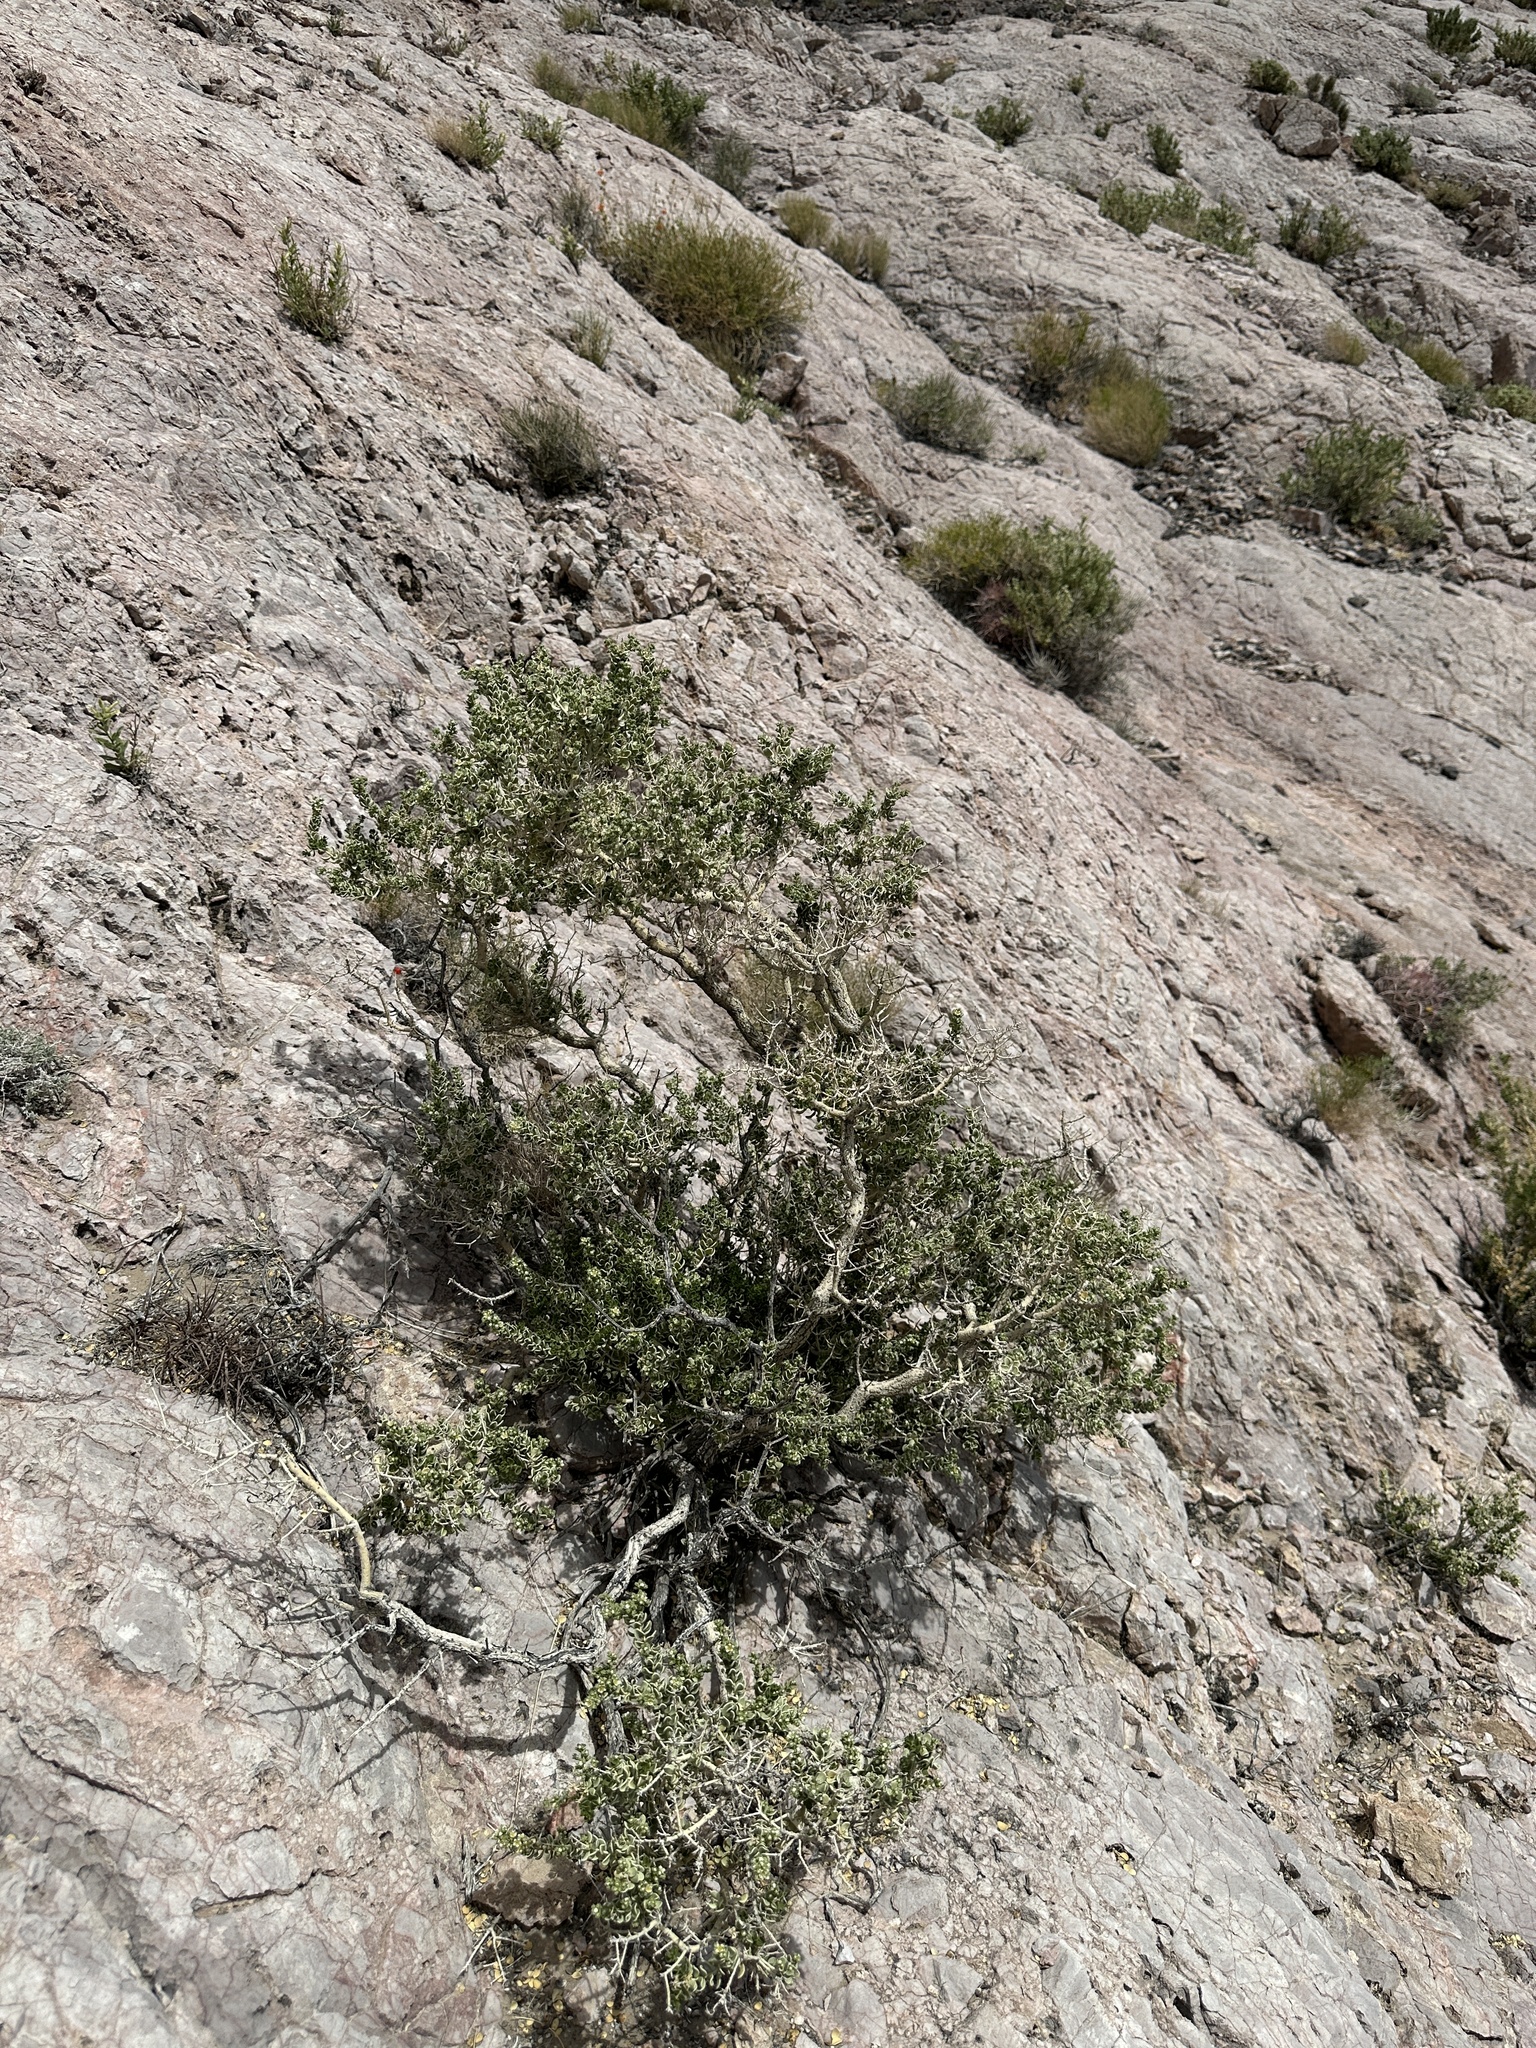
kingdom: Plantae
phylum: Tracheophyta
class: Magnoliopsida
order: Celastrales
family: Celastraceae
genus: Mortonia
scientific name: Mortonia utahensis
